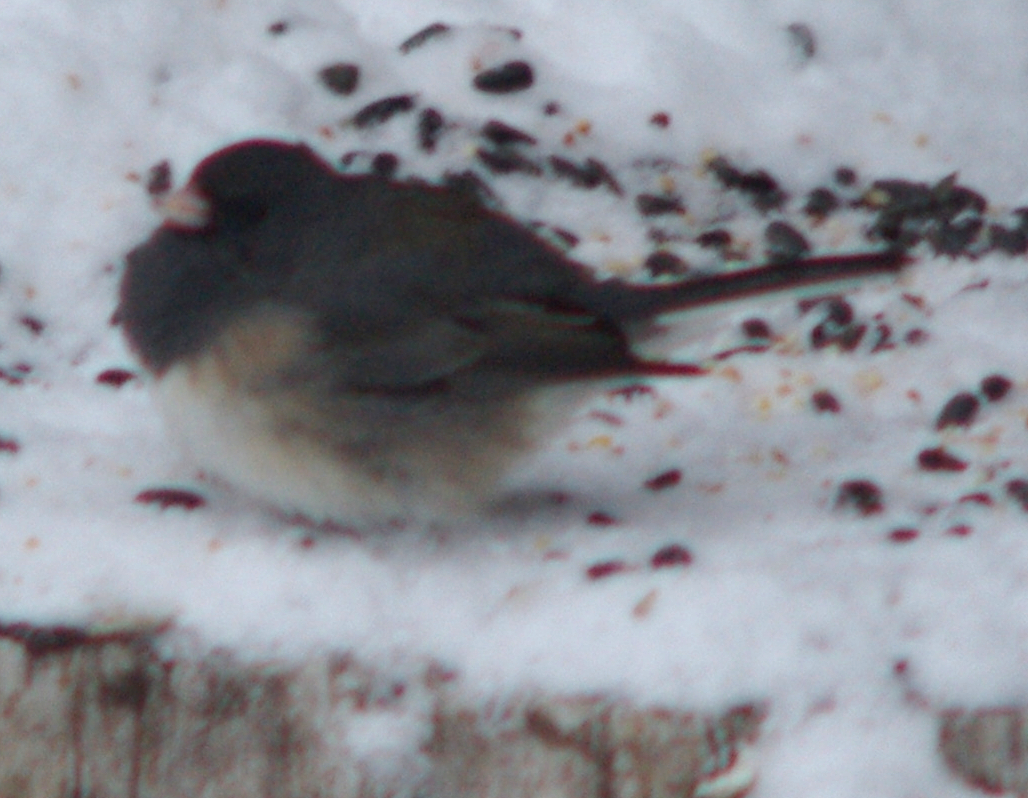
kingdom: Animalia
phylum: Chordata
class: Aves
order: Passeriformes
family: Passerellidae
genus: Junco
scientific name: Junco hyemalis
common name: Dark-eyed junco
